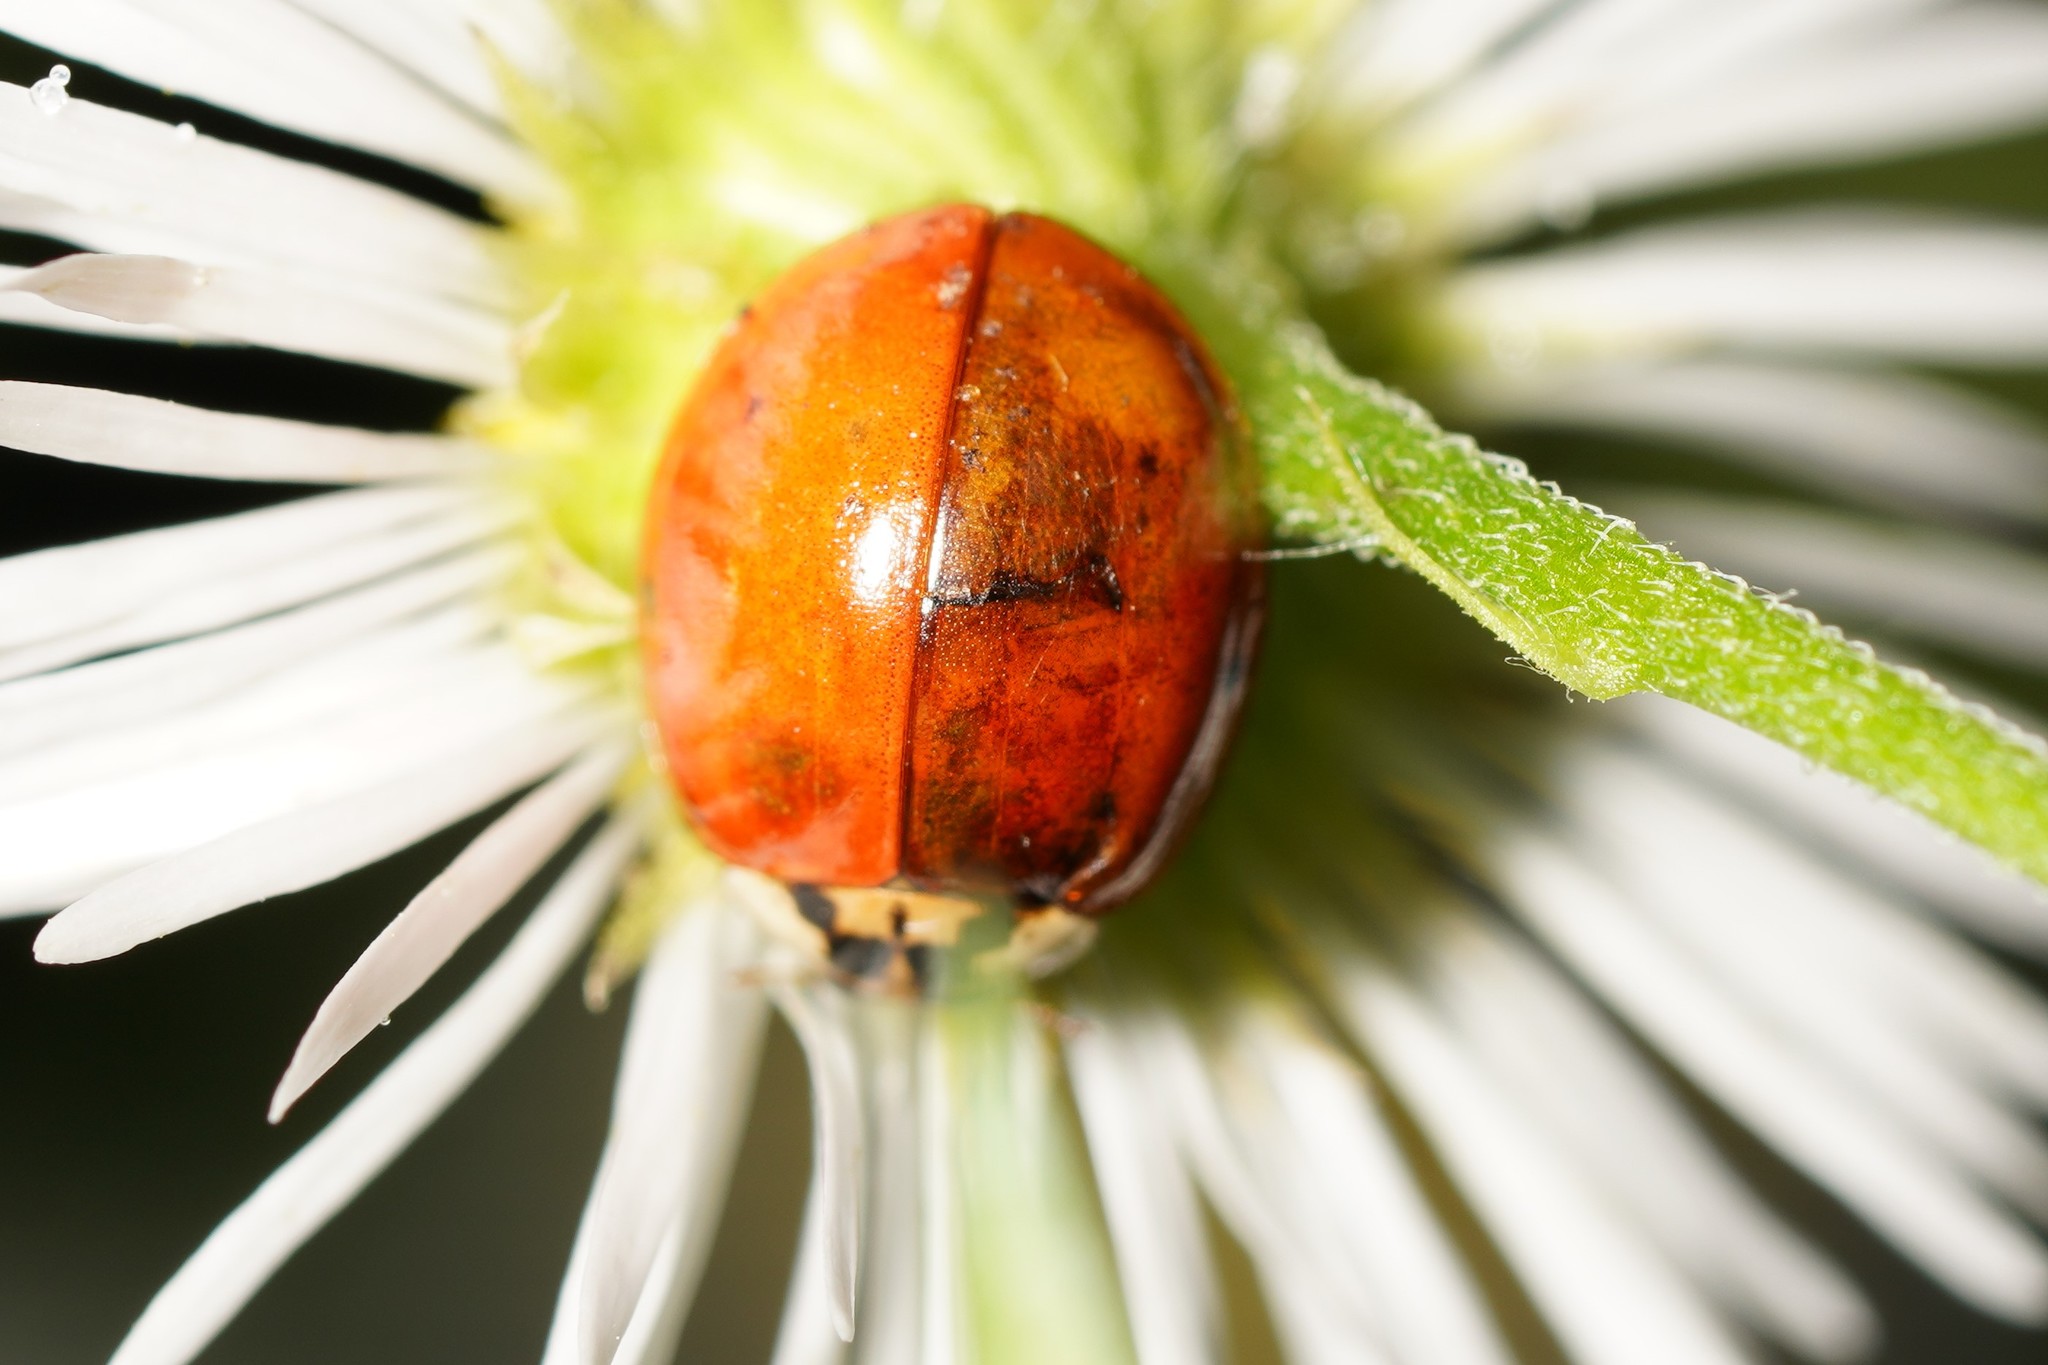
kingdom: Animalia
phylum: Arthropoda
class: Insecta
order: Coleoptera
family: Coccinellidae
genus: Harmonia
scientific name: Harmonia axyridis
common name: Harlequin ladybird
